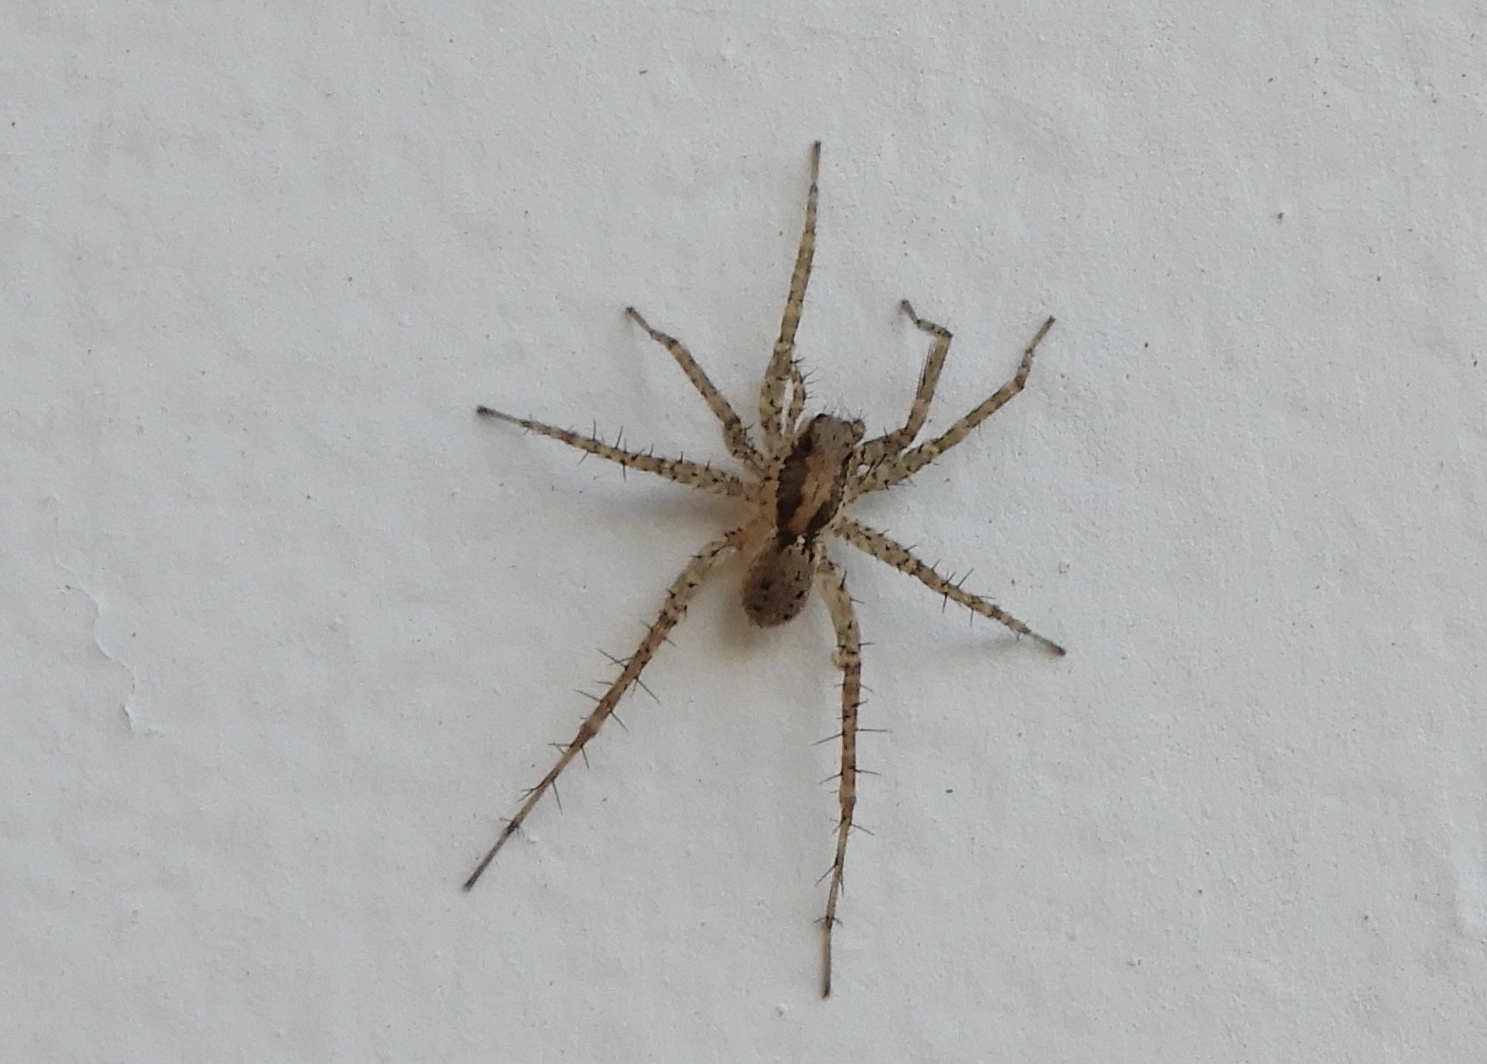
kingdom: Animalia
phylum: Arthropoda
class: Arachnida
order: Araneae
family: Lycosidae
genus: Pardosa
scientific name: Pardosa
